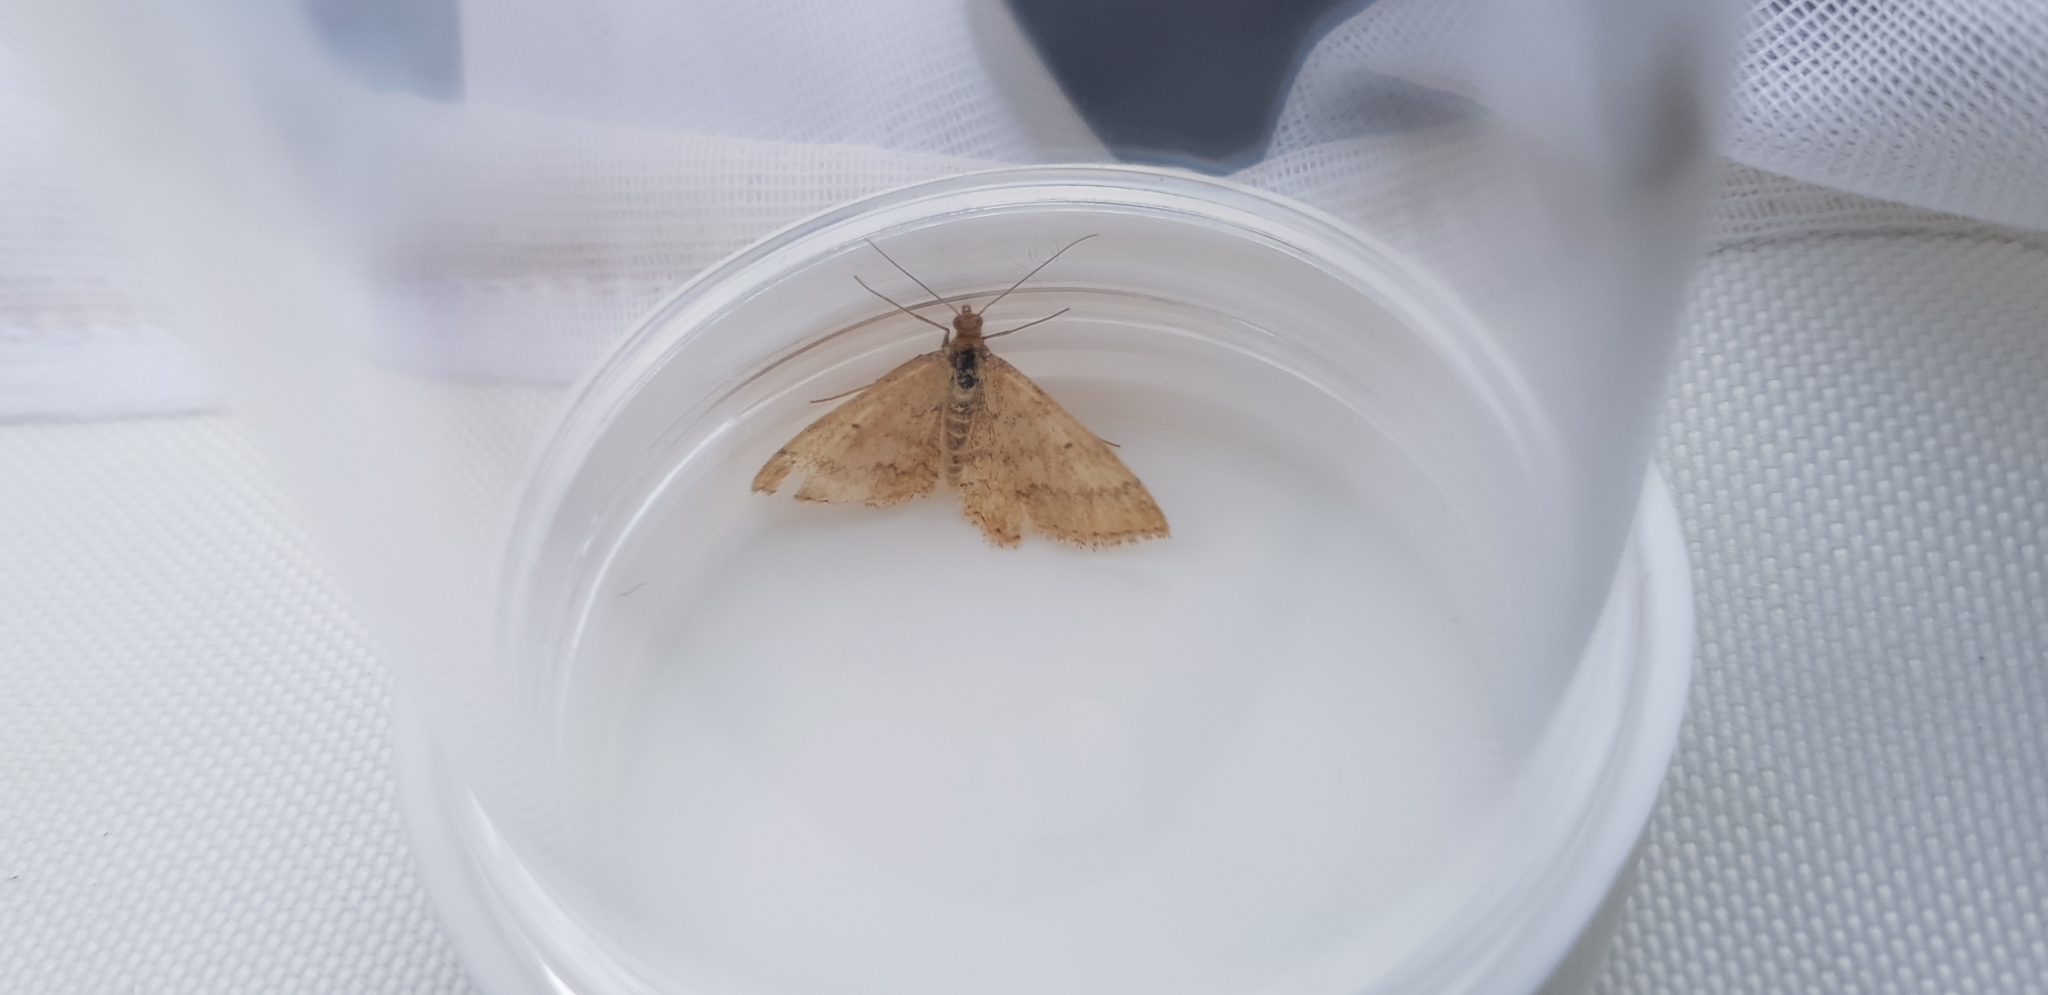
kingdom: Animalia
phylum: Arthropoda
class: Insecta
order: Lepidoptera
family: Geometridae
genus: Scopula
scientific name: Scopula rubraria
